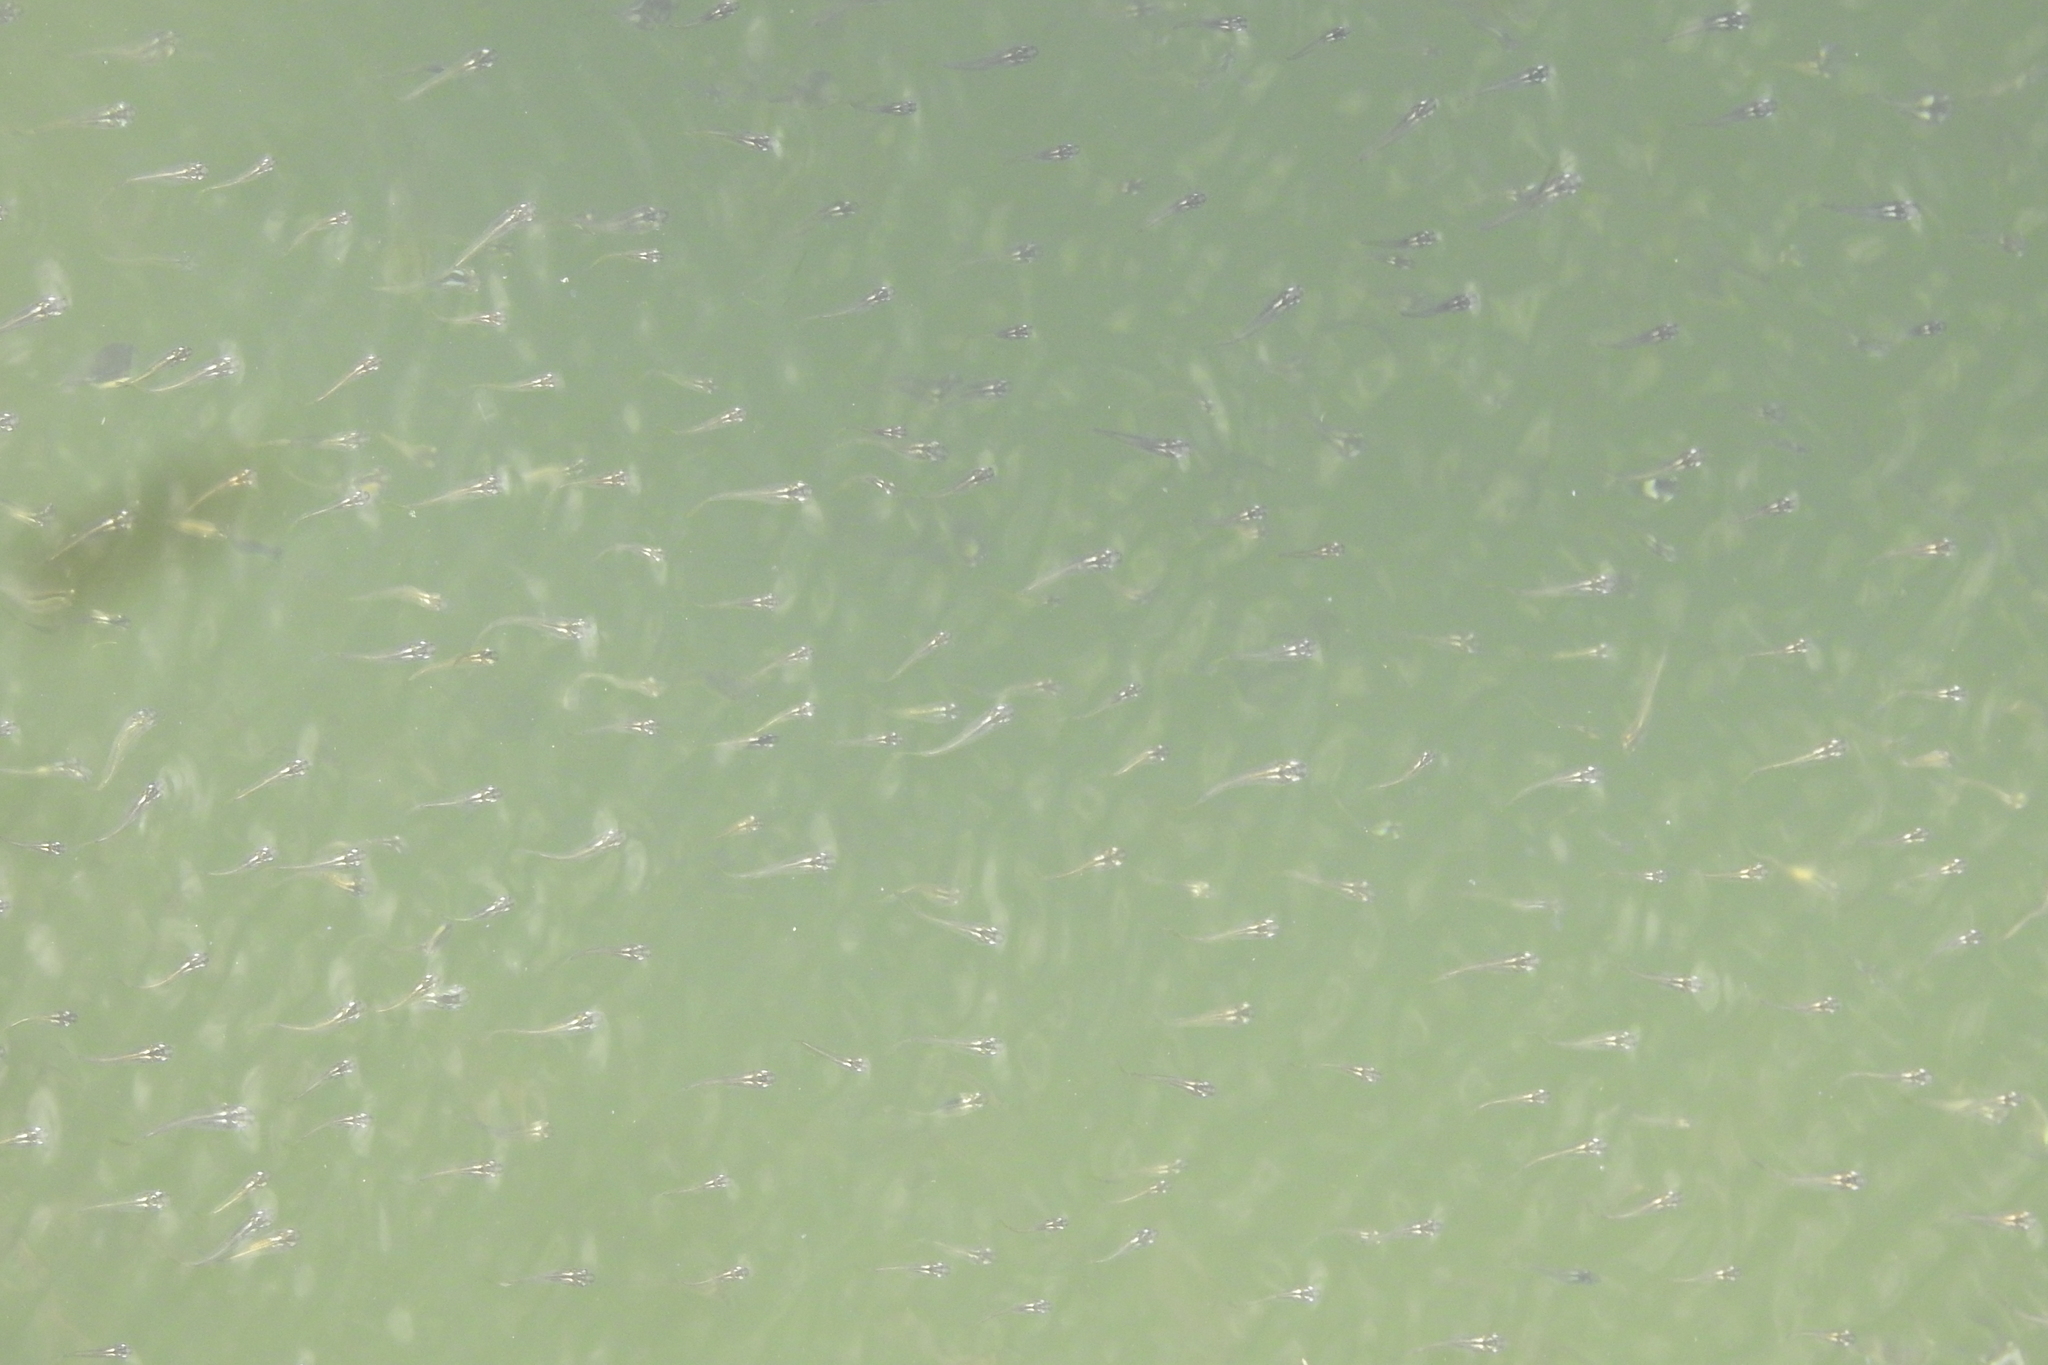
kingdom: Animalia
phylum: Chordata
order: Beloniformes
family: Adrianichthyidae
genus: Oryzias
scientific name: Oryzias javanicus
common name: Javanese ricefish
